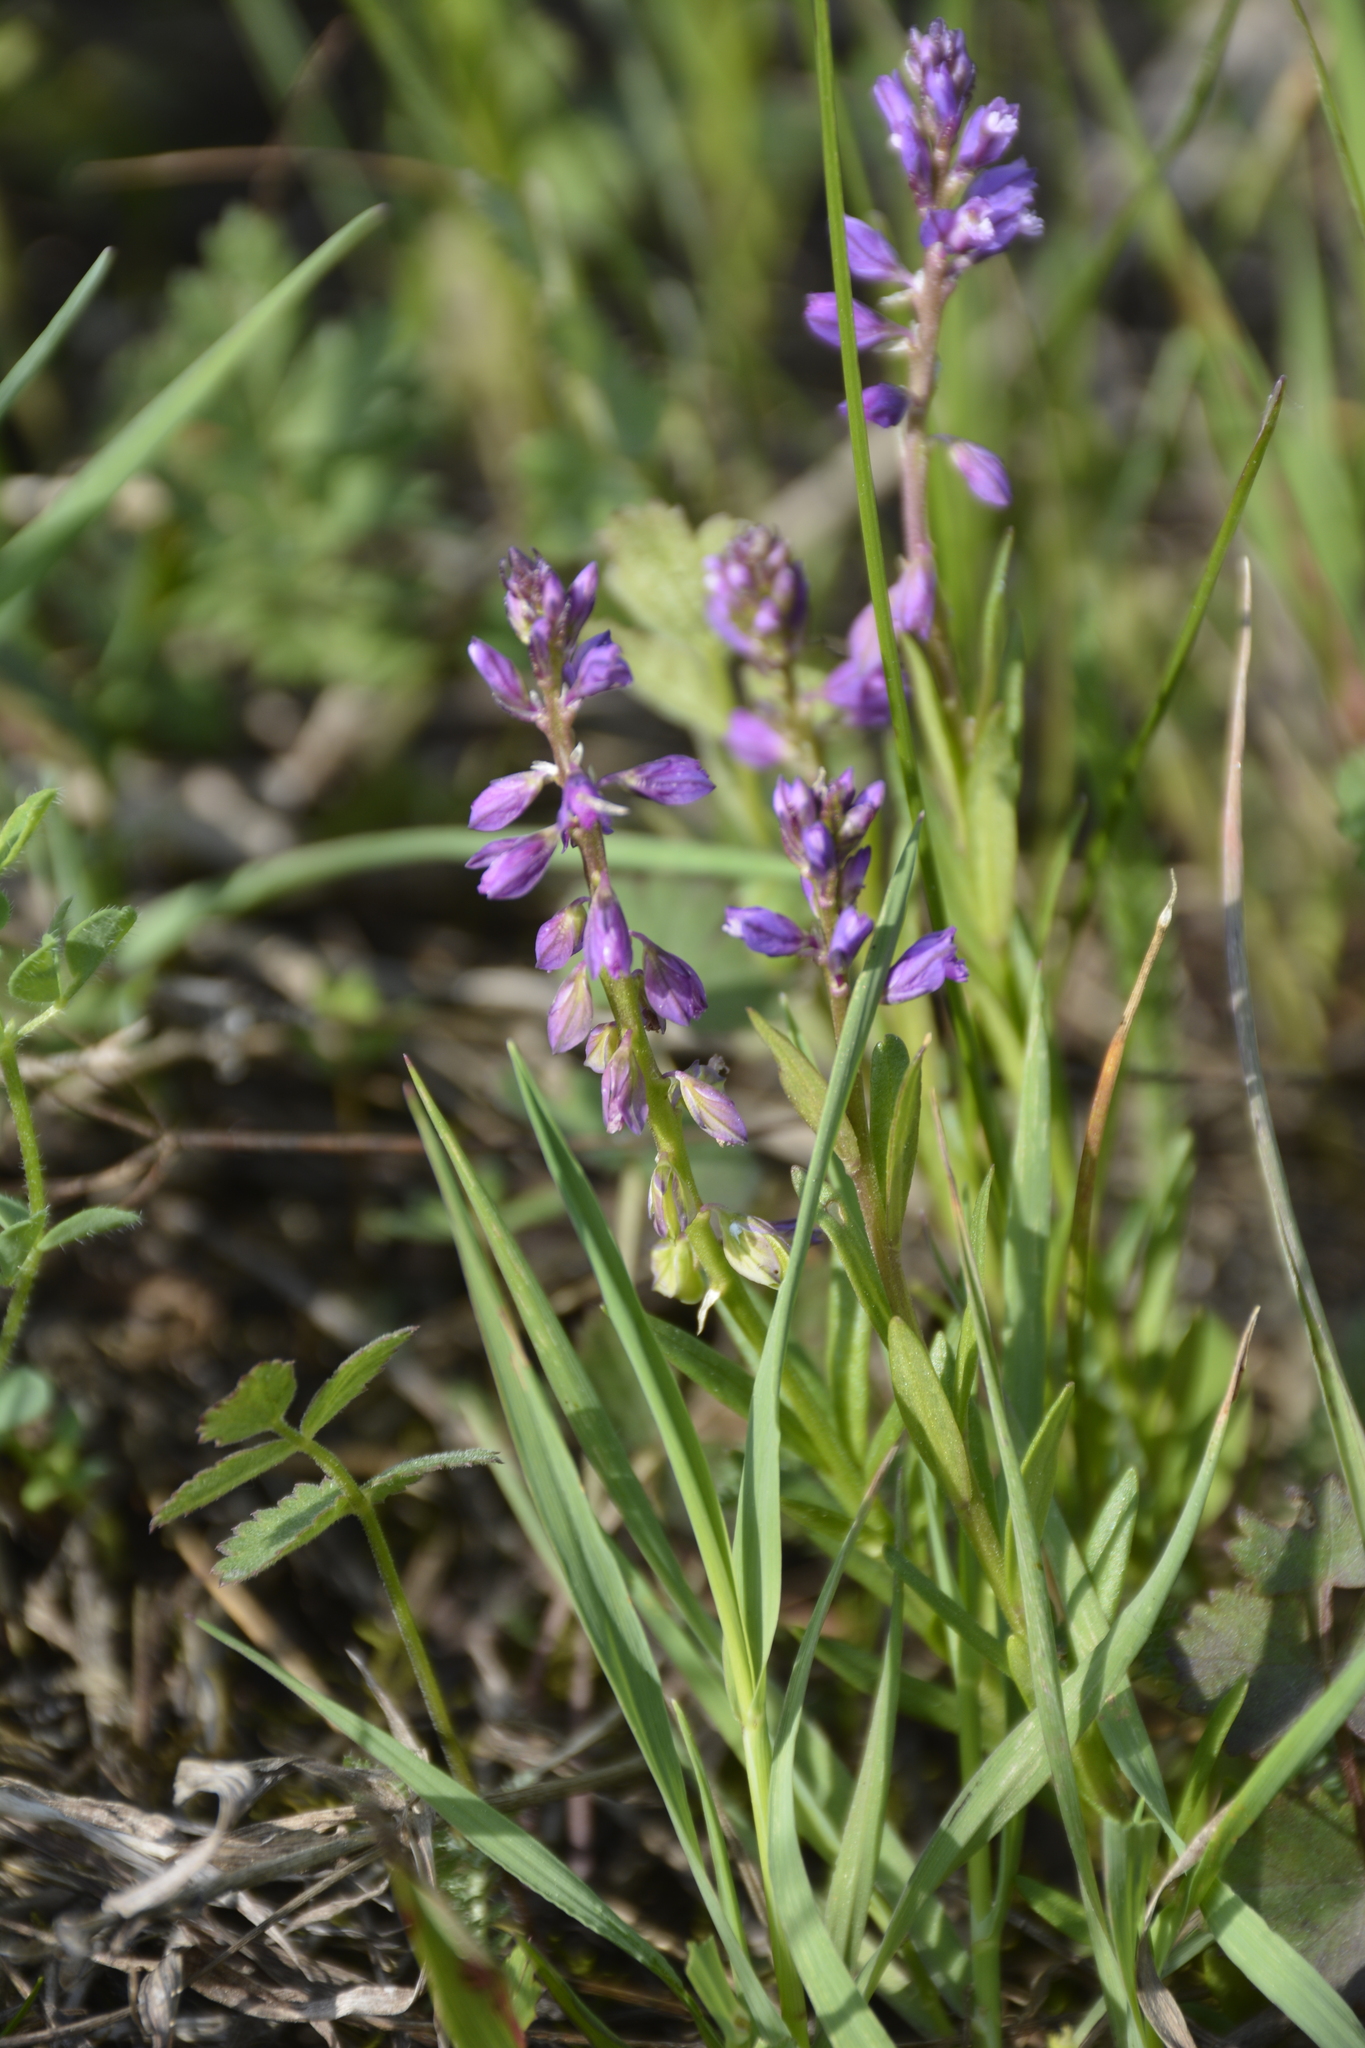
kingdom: Plantae
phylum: Tracheophyta
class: Magnoliopsida
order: Fabales
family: Polygalaceae
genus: Polygala
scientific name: Polygala comosa
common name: Tufted milkwort
